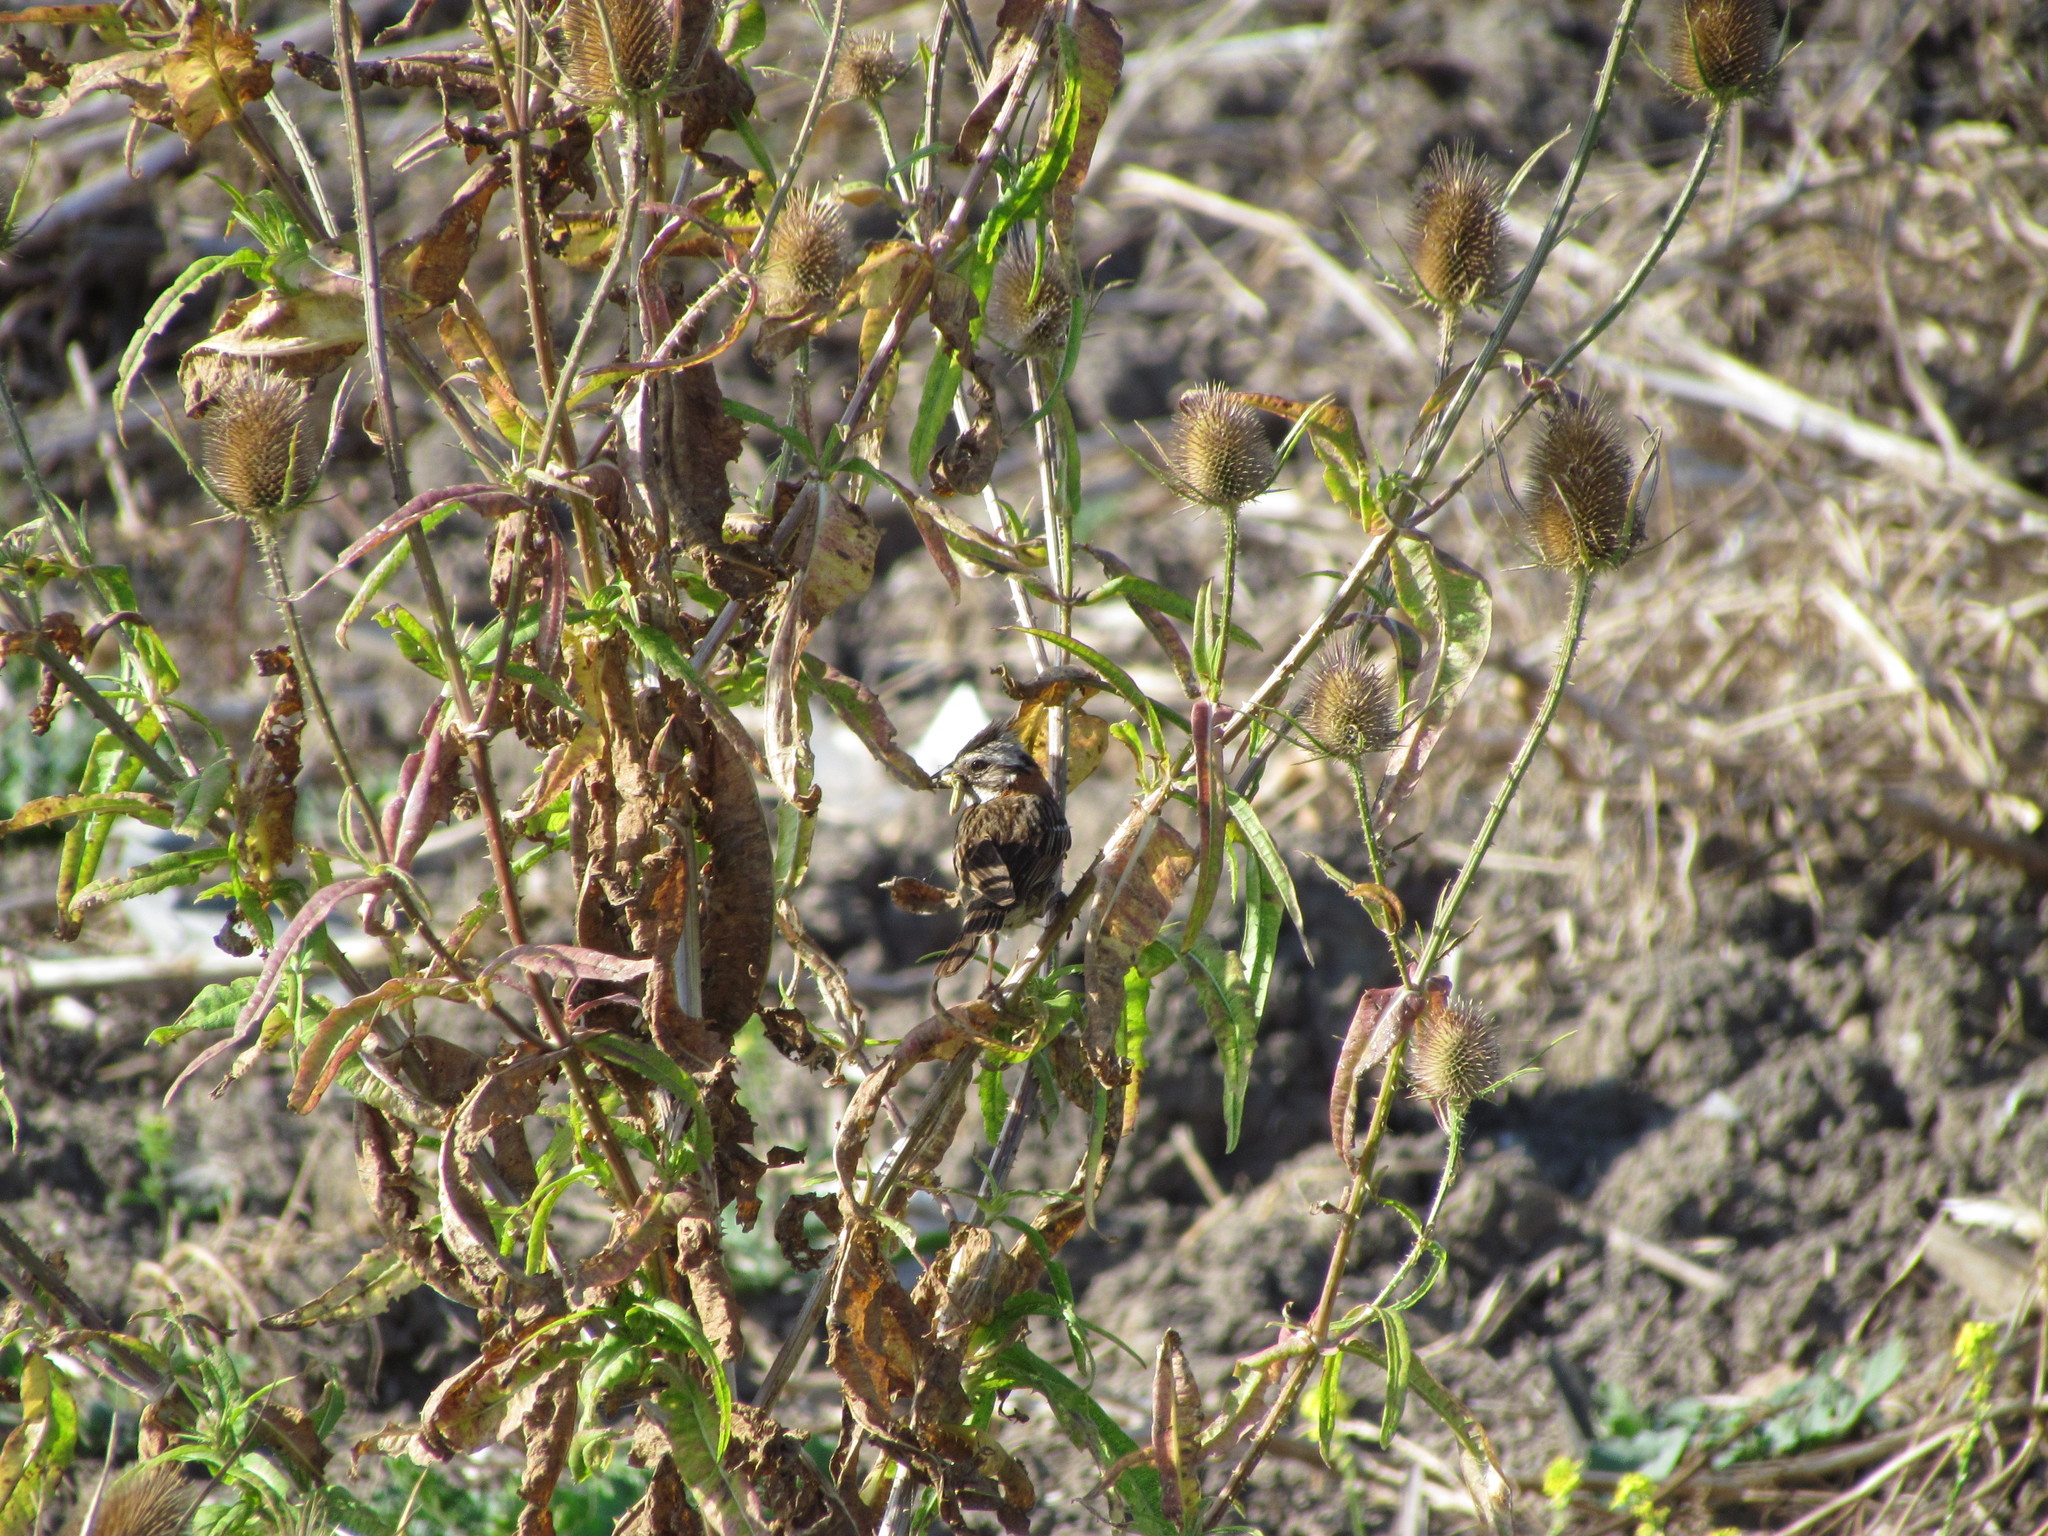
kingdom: Animalia
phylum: Chordata
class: Aves
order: Passeriformes
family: Passerellidae
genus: Zonotrichia
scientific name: Zonotrichia capensis
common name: Rufous-collared sparrow
